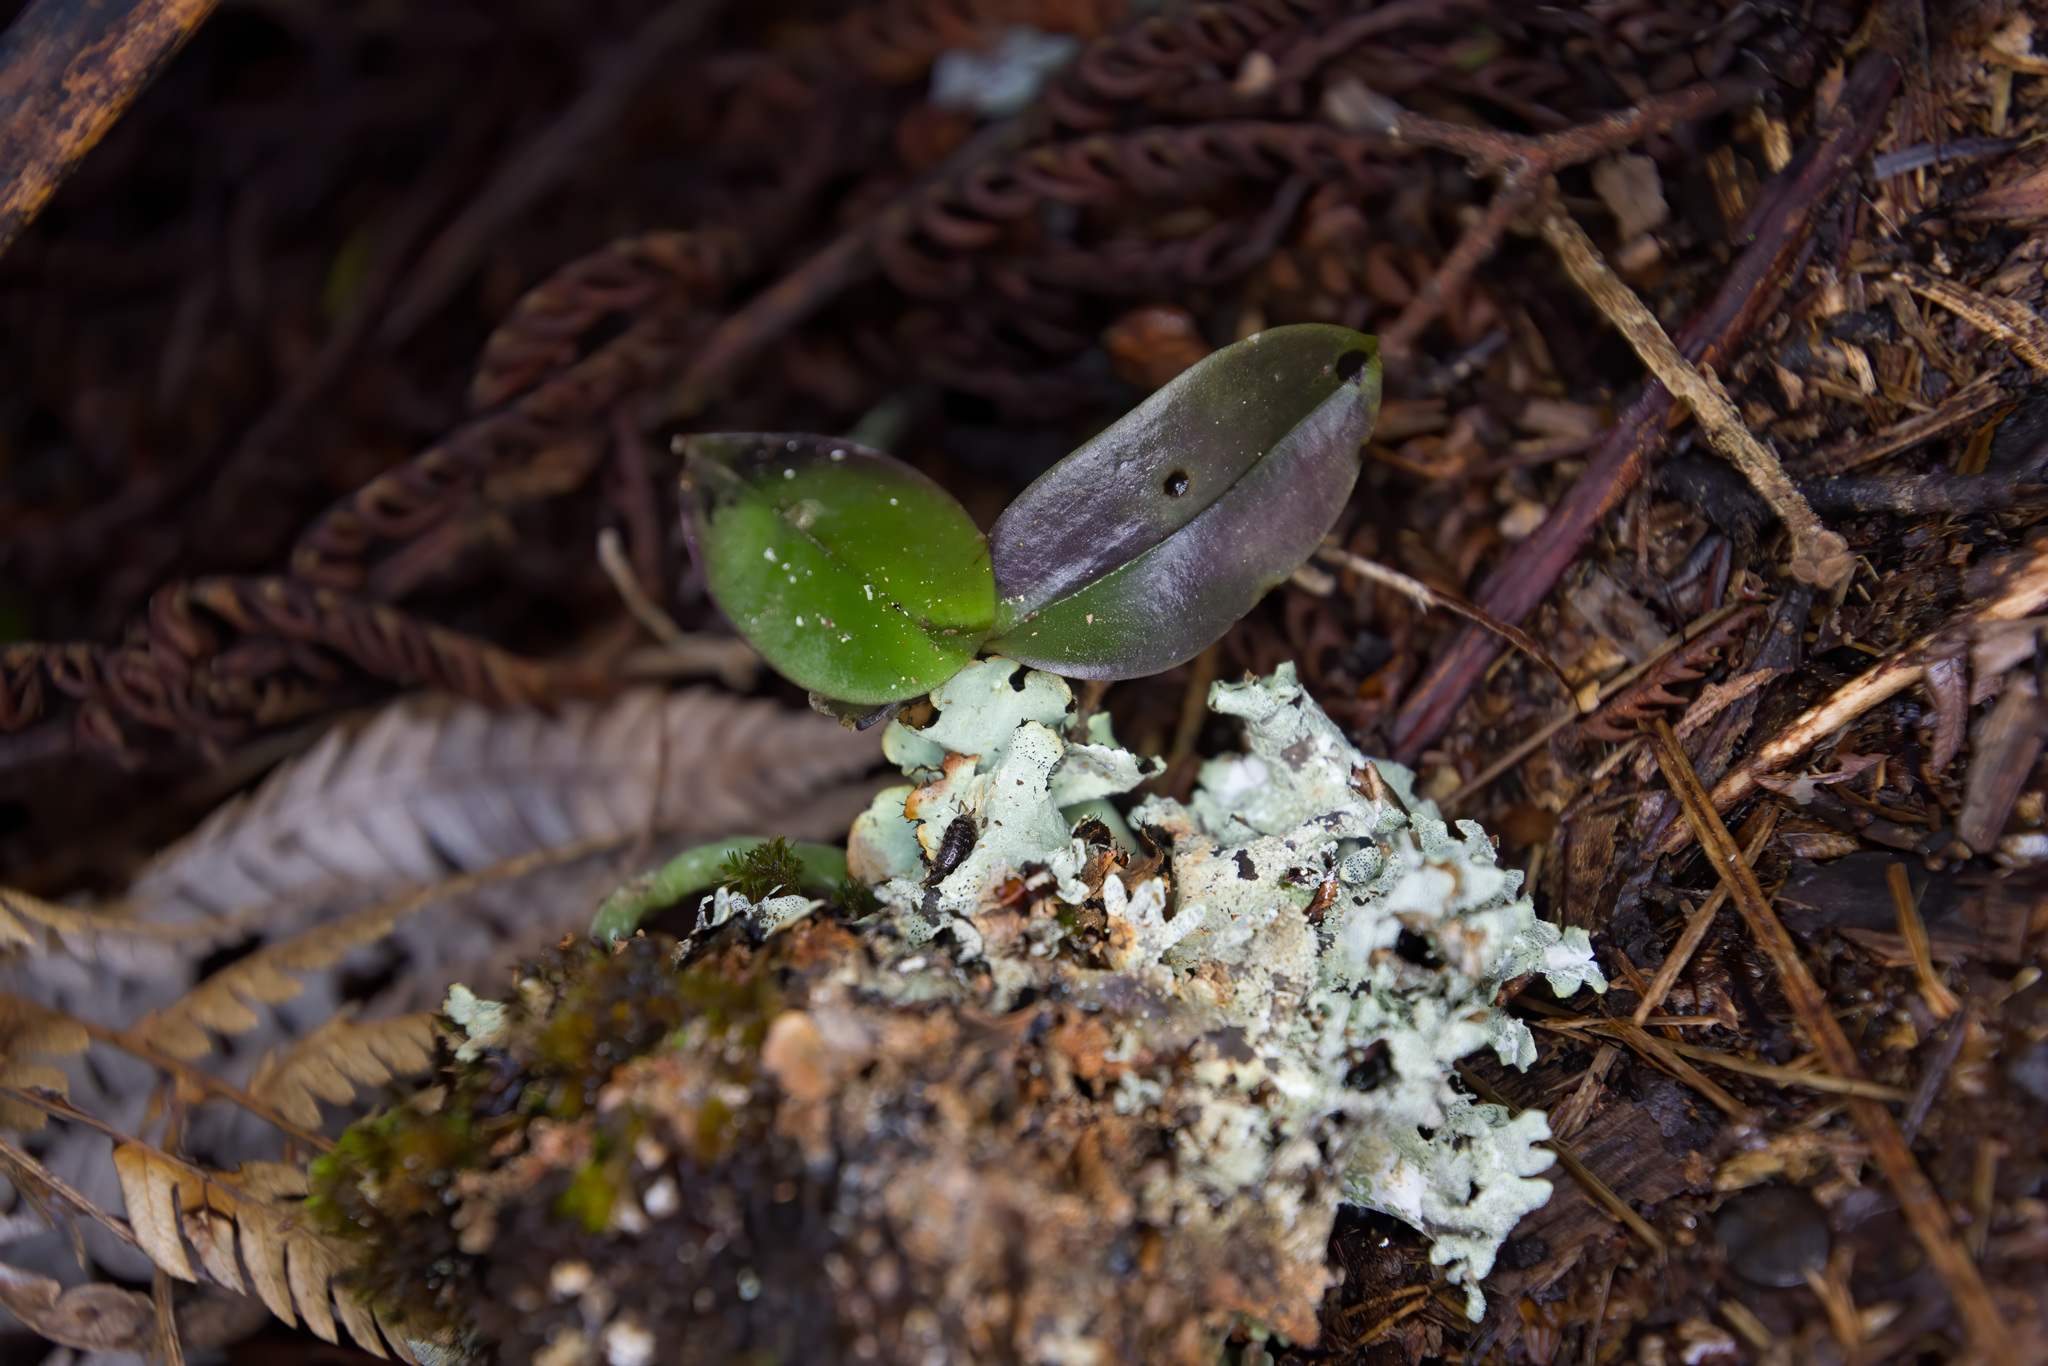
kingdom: Plantae
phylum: Tracheophyta
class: Liliopsida
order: Asparagales
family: Orchidaceae
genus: Drymoanthus
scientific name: Drymoanthus adversus
